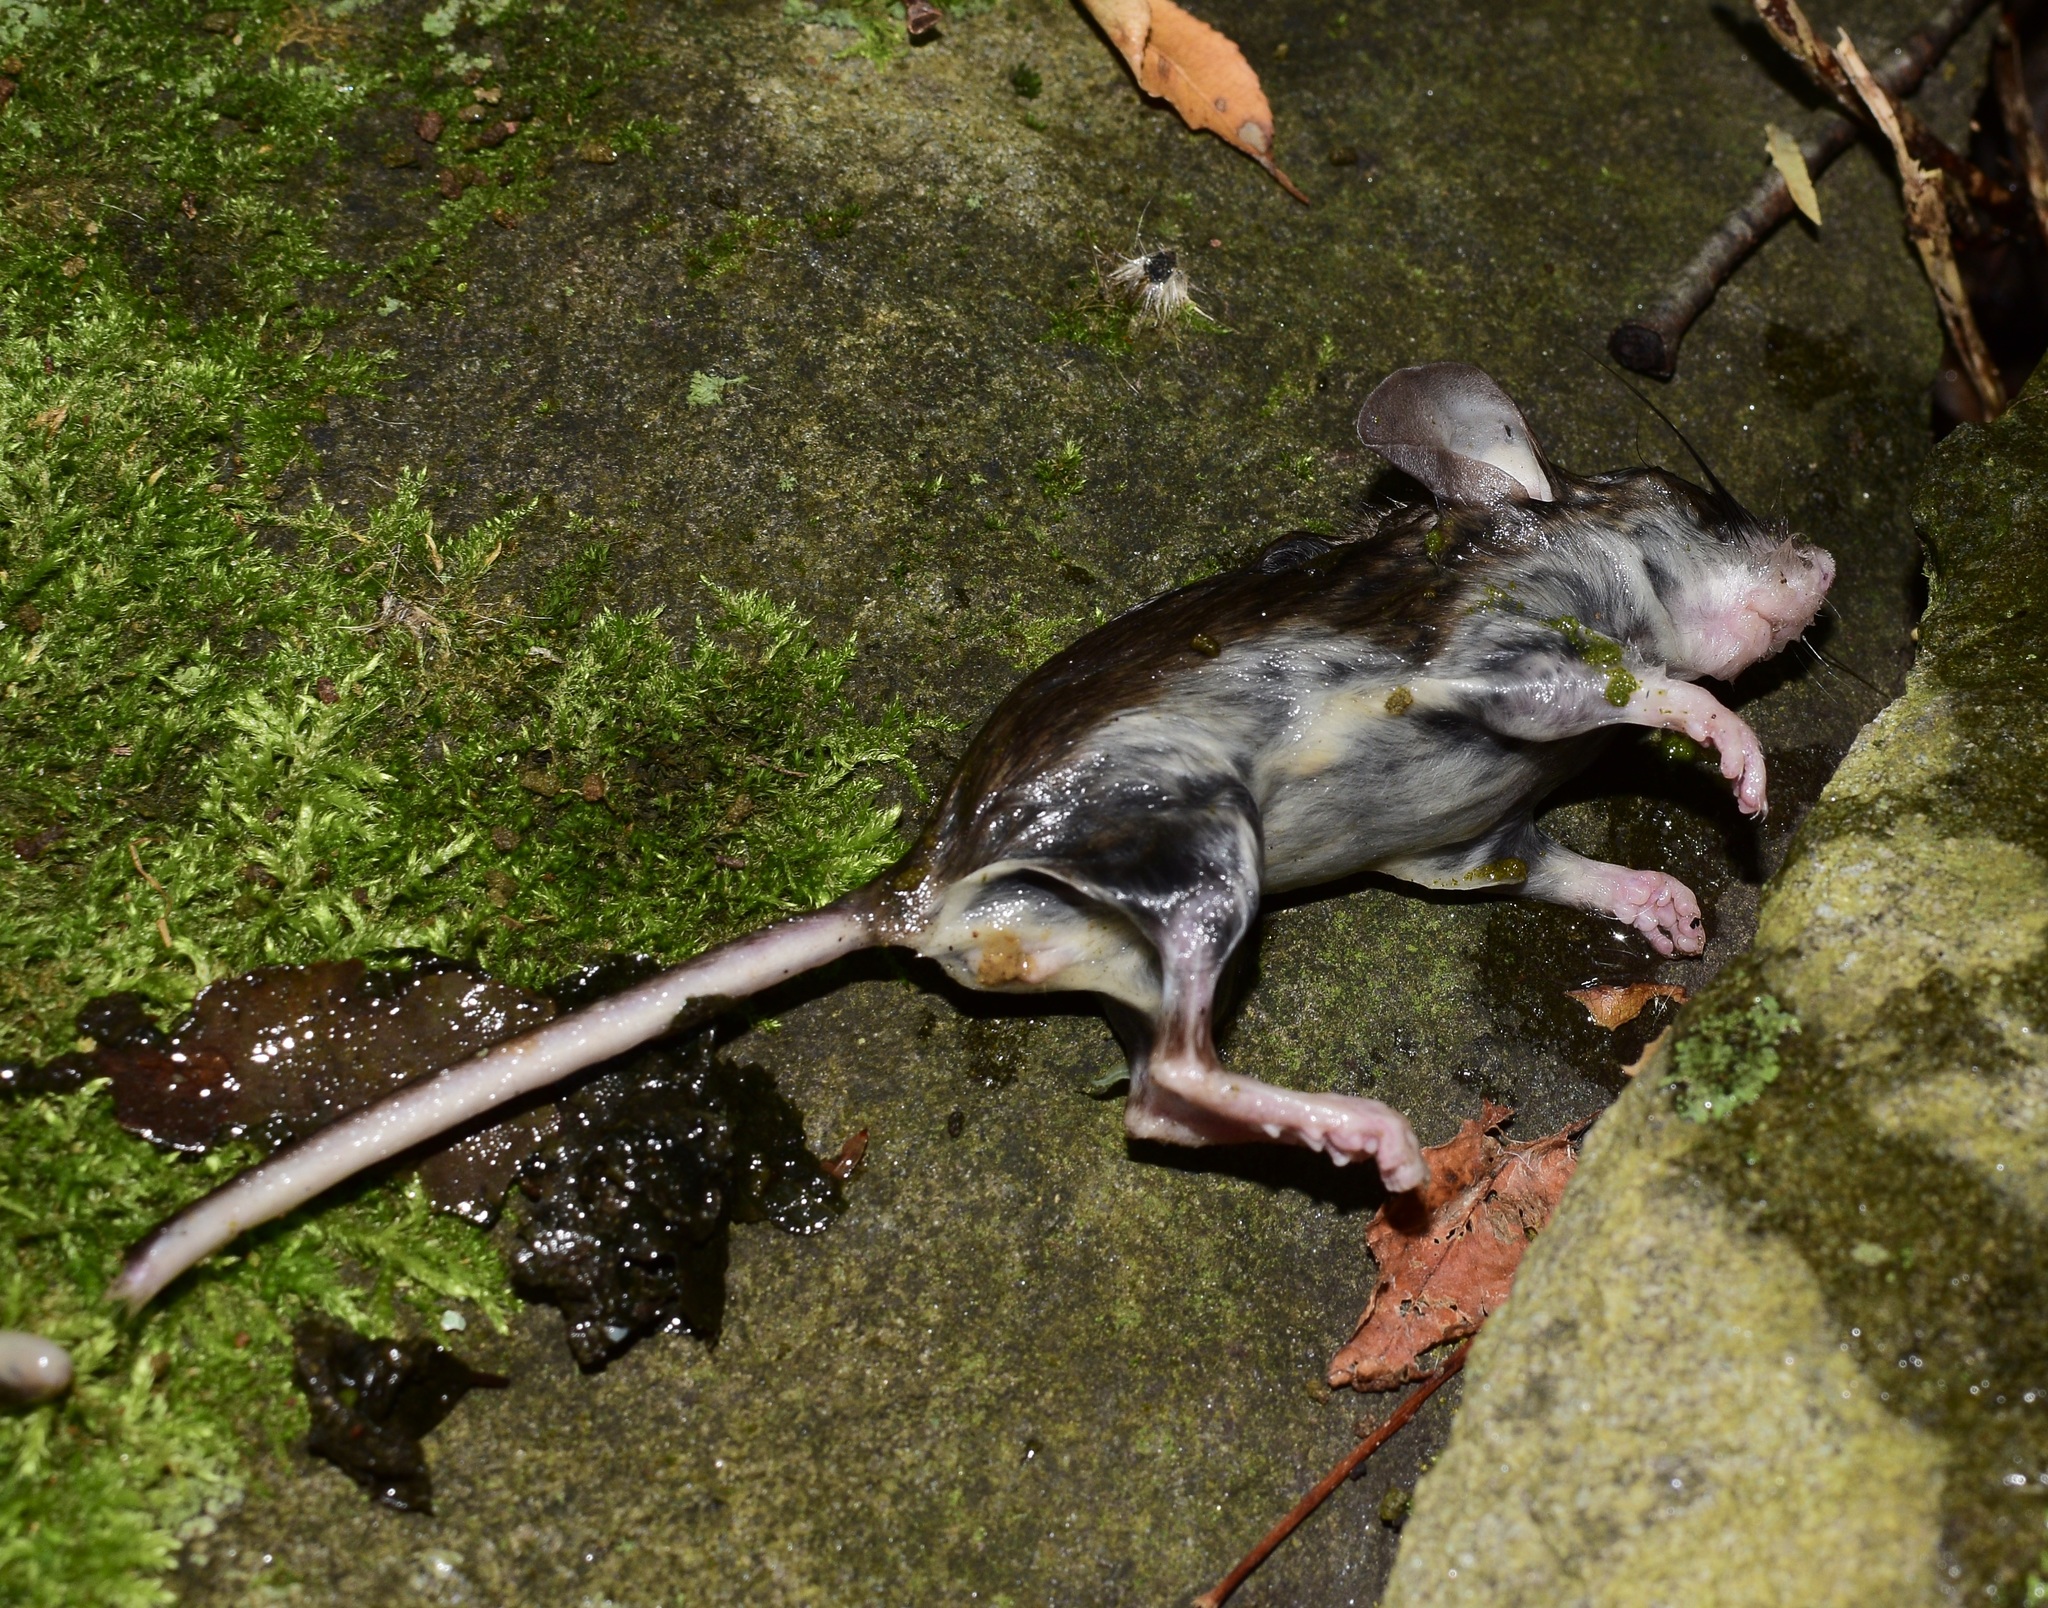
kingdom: Animalia
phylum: Chordata
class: Mammalia
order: Rodentia
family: Cricetidae
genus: Peromyscus
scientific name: Peromyscus
